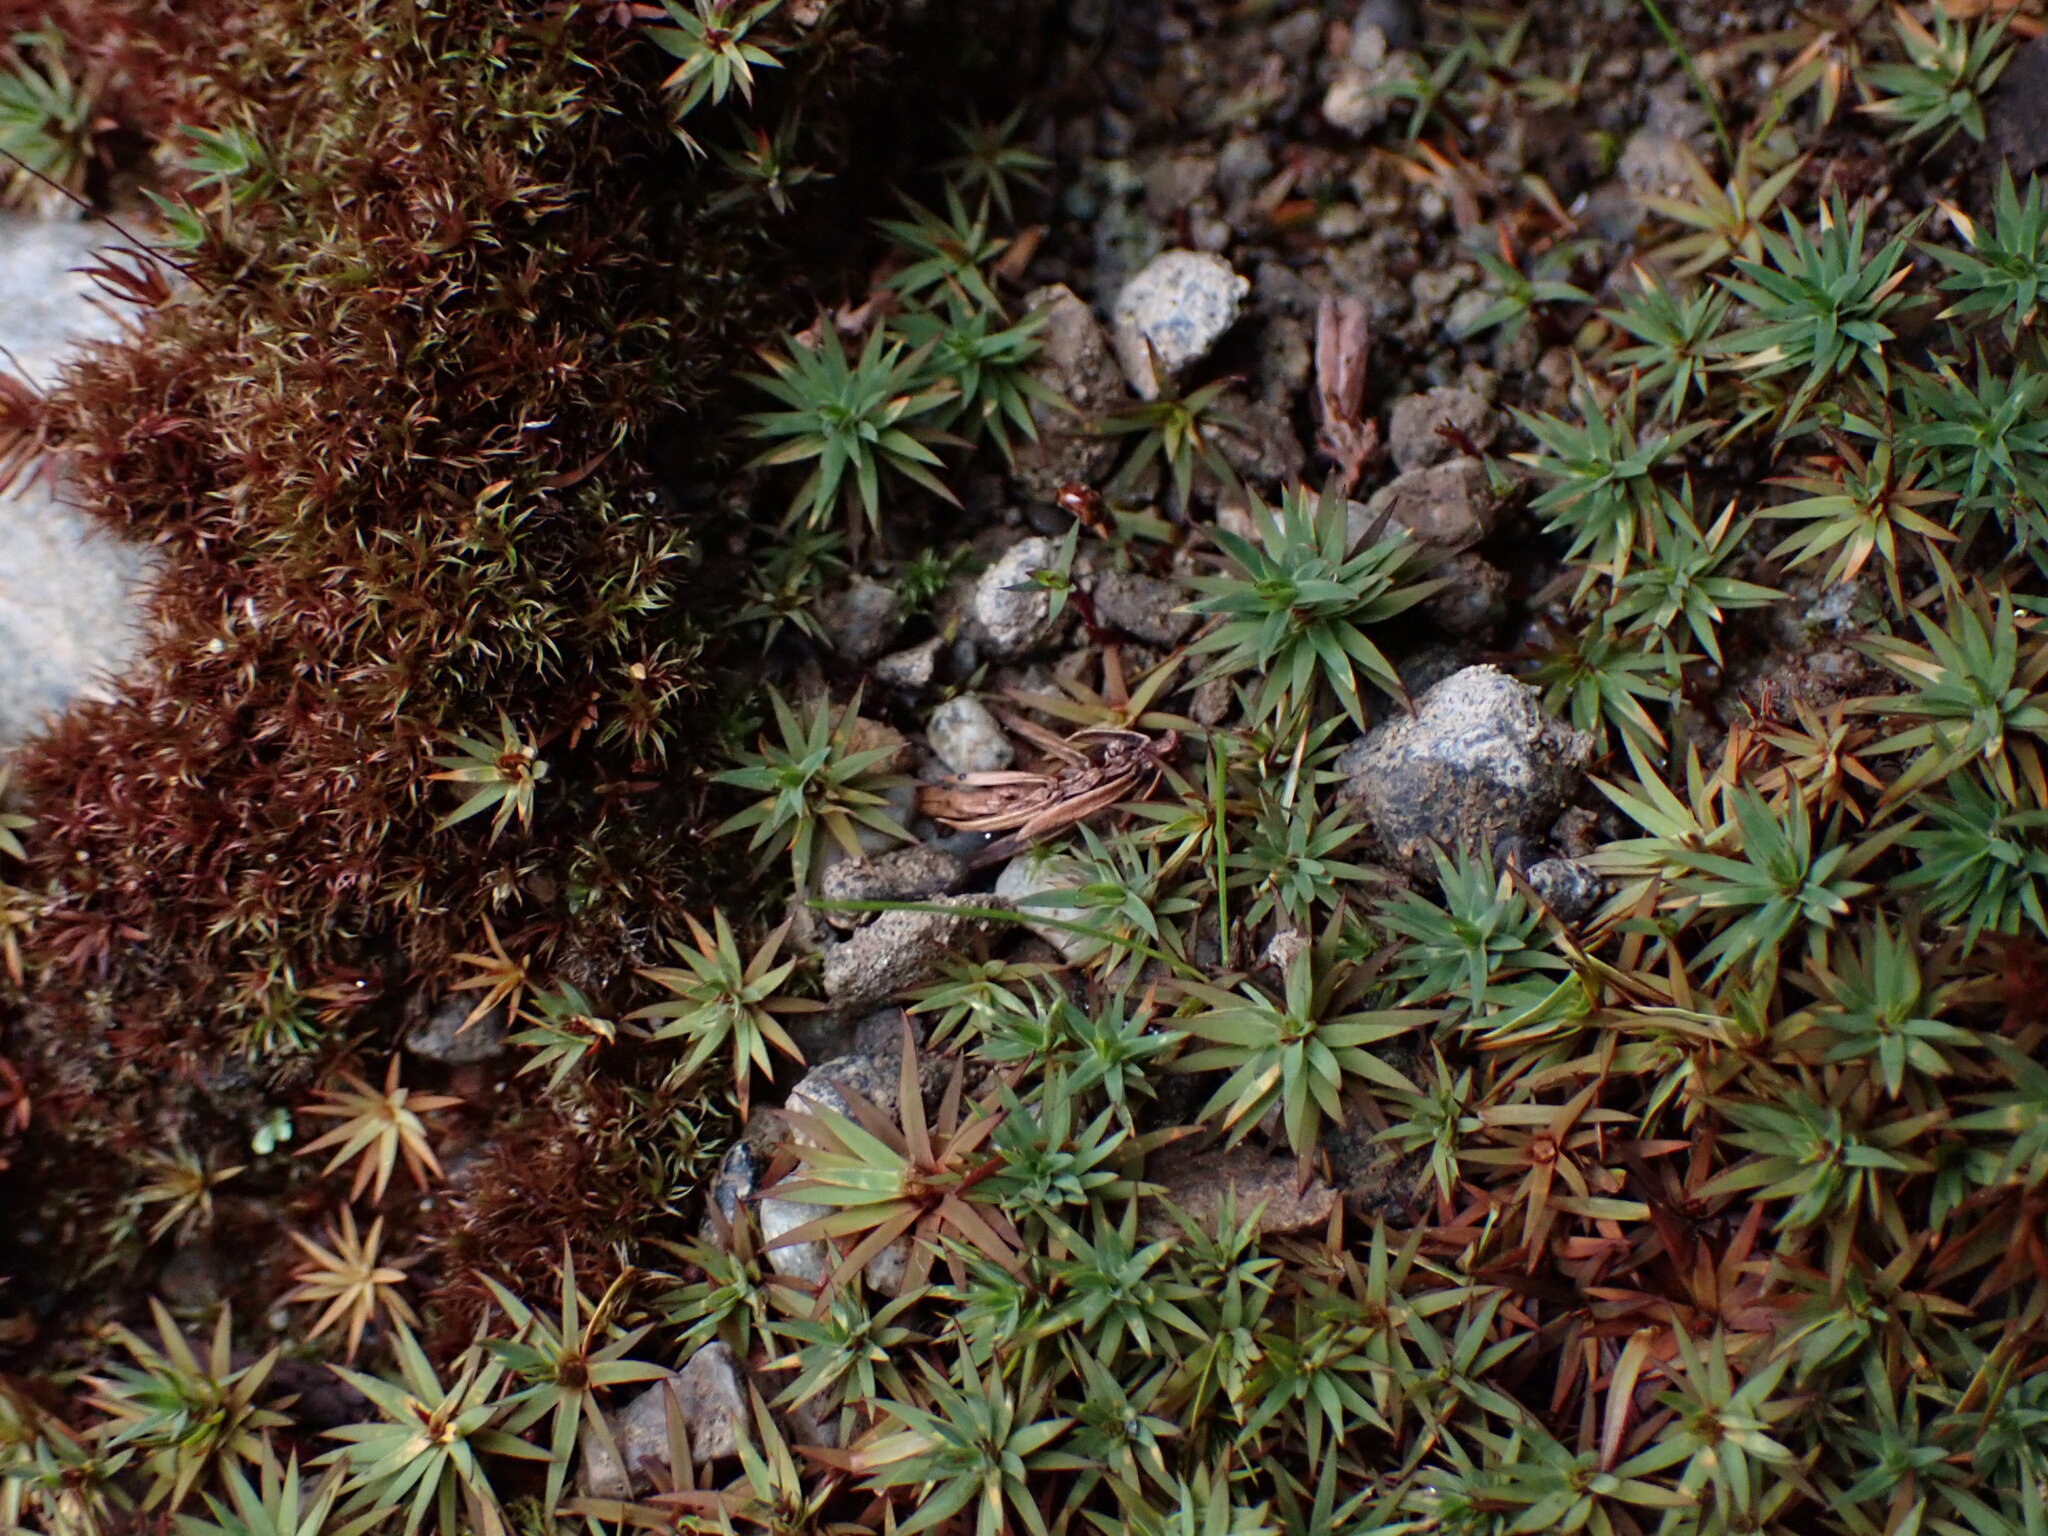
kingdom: Plantae
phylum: Bryophyta
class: Polytrichopsida
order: Polytrichales
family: Polytrichaceae
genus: Pogonatum
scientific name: Pogonatum urnigerum
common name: Urn hair moss
